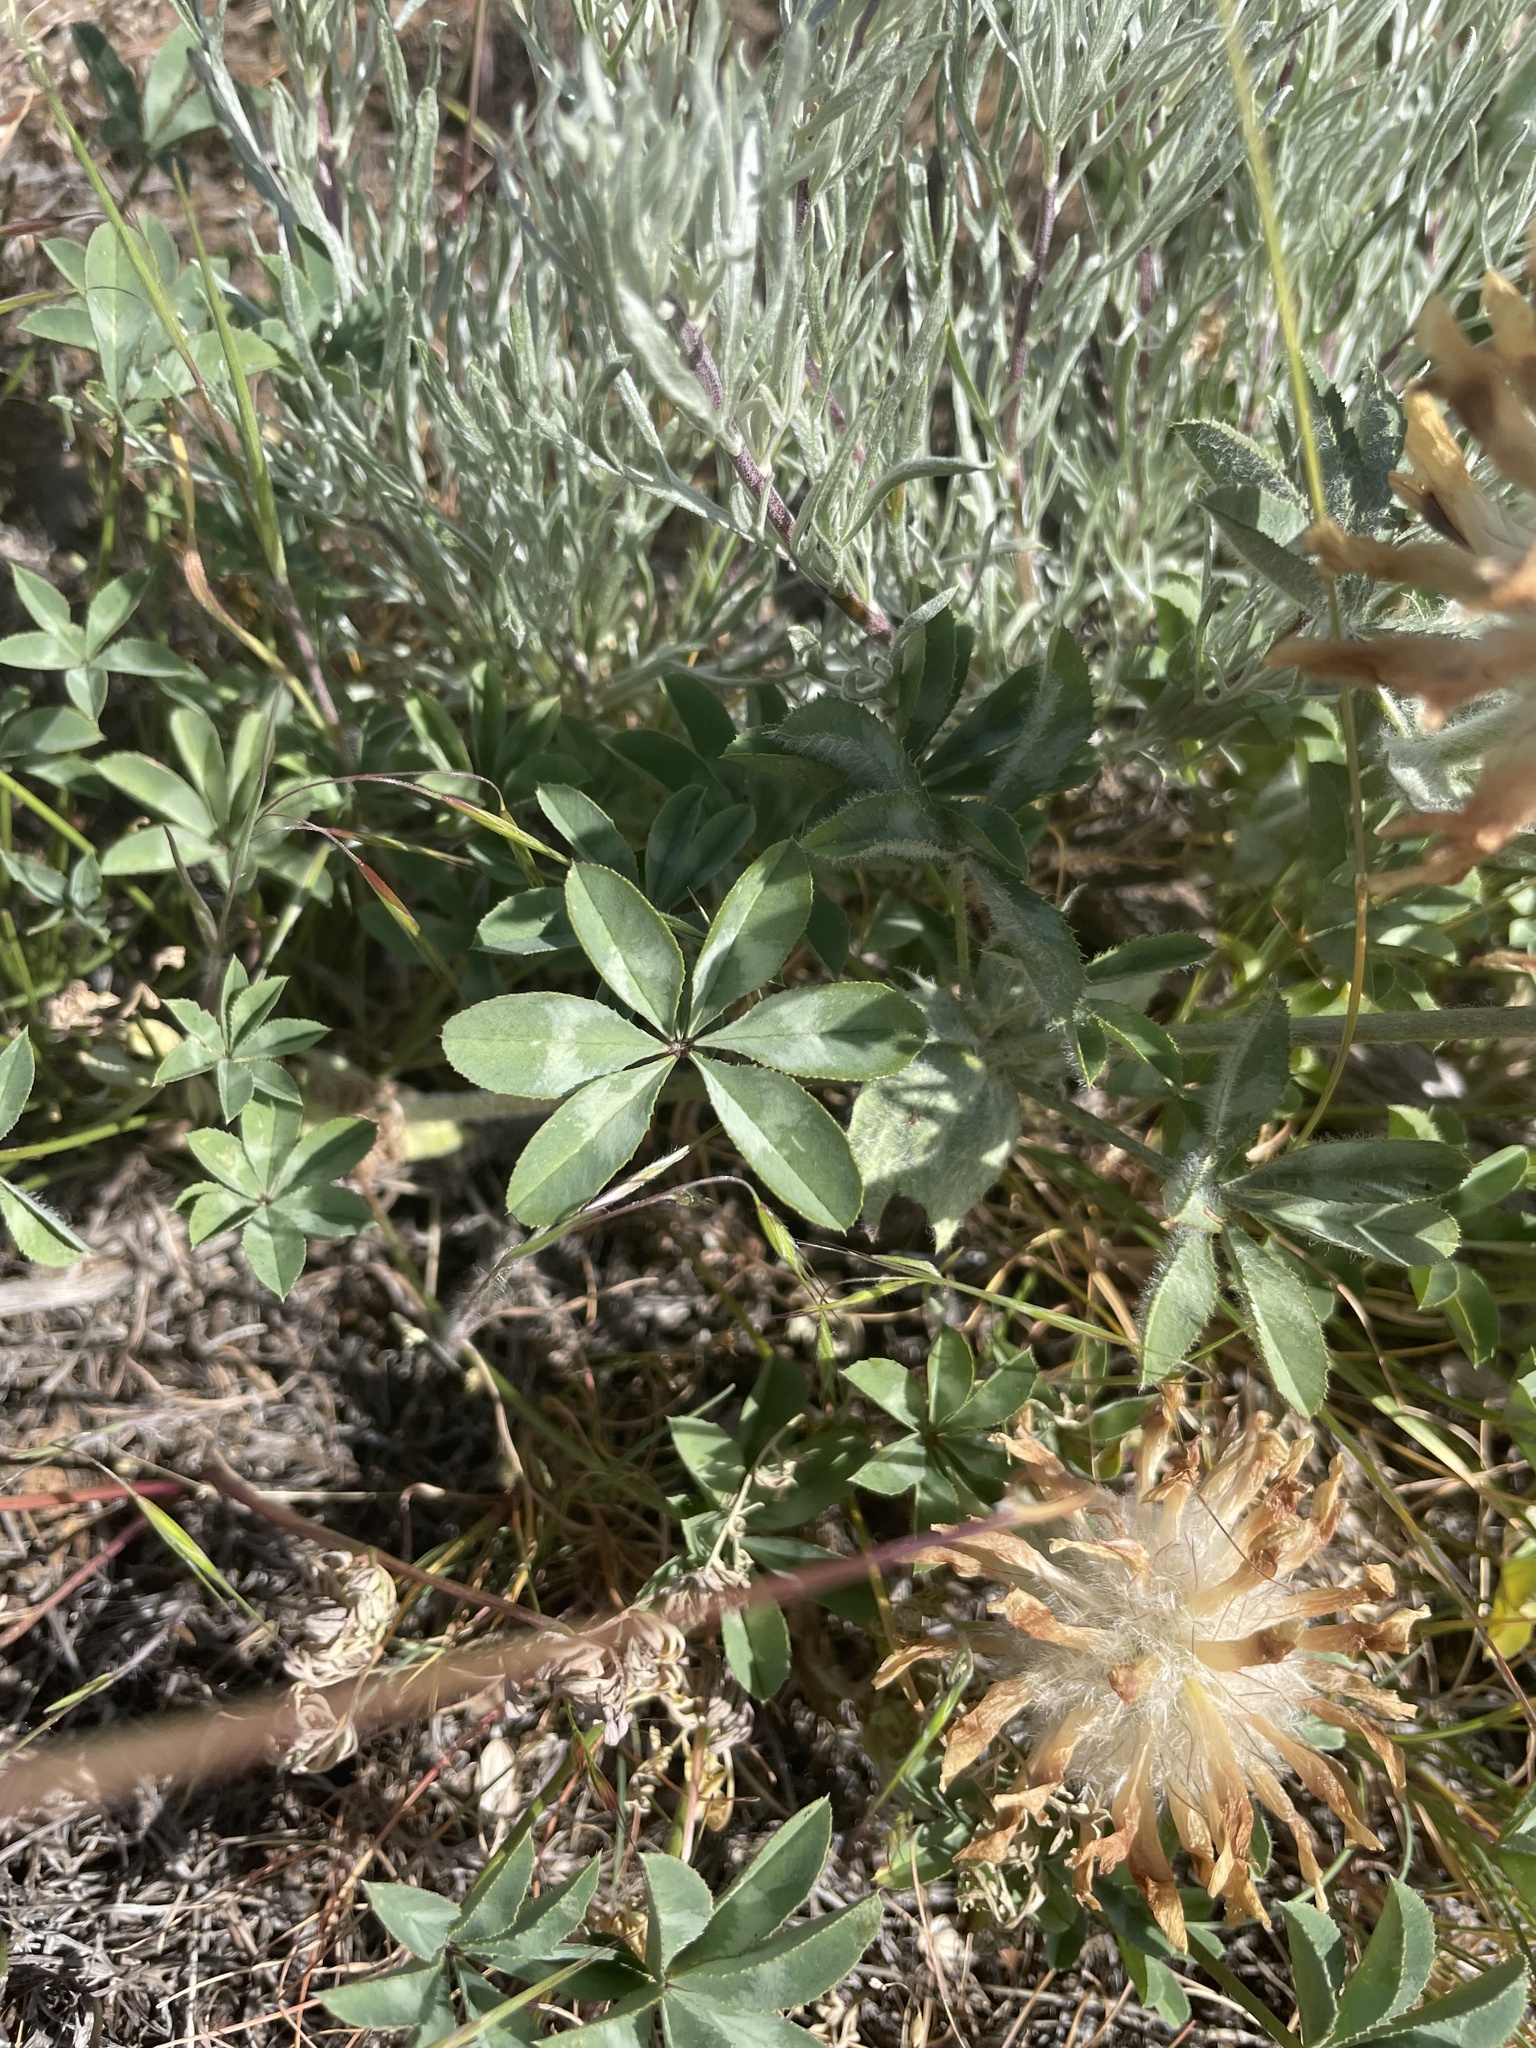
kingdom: Plantae
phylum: Tracheophyta
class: Magnoliopsida
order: Fabales
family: Fabaceae
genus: Trifolium
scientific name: Trifolium macrocephalum
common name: Large-head clover
